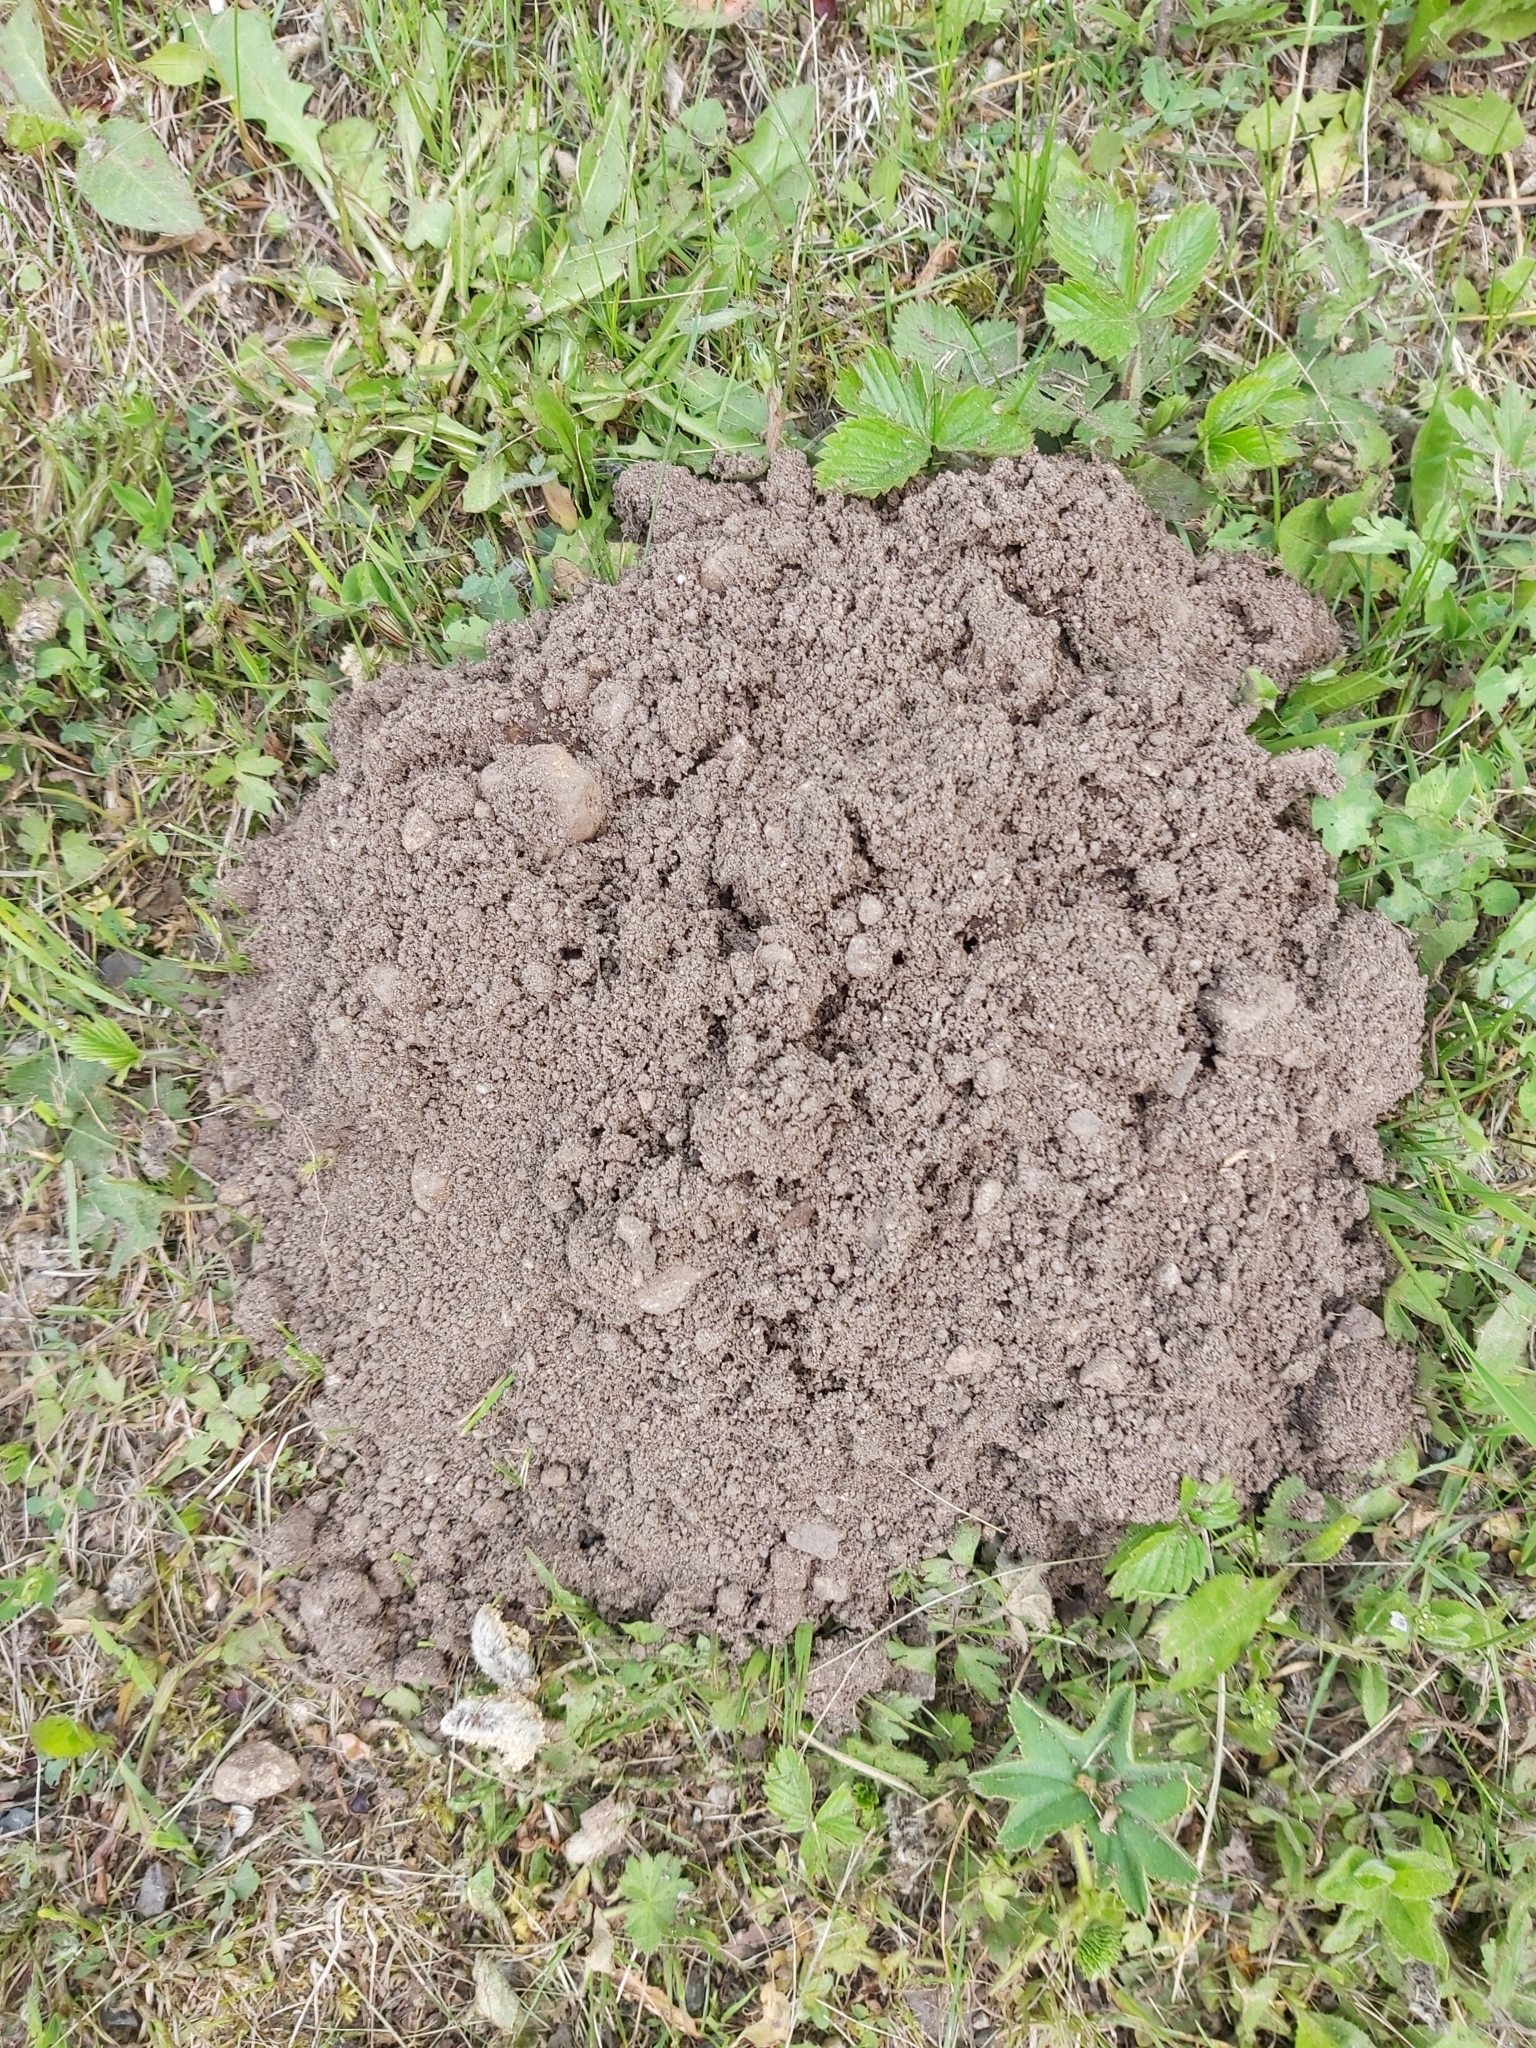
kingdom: Animalia
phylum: Chordata
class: Mammalia
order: Soricomorpha
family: Talpidae
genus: Talpa
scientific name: Talpa europaea
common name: European mole
